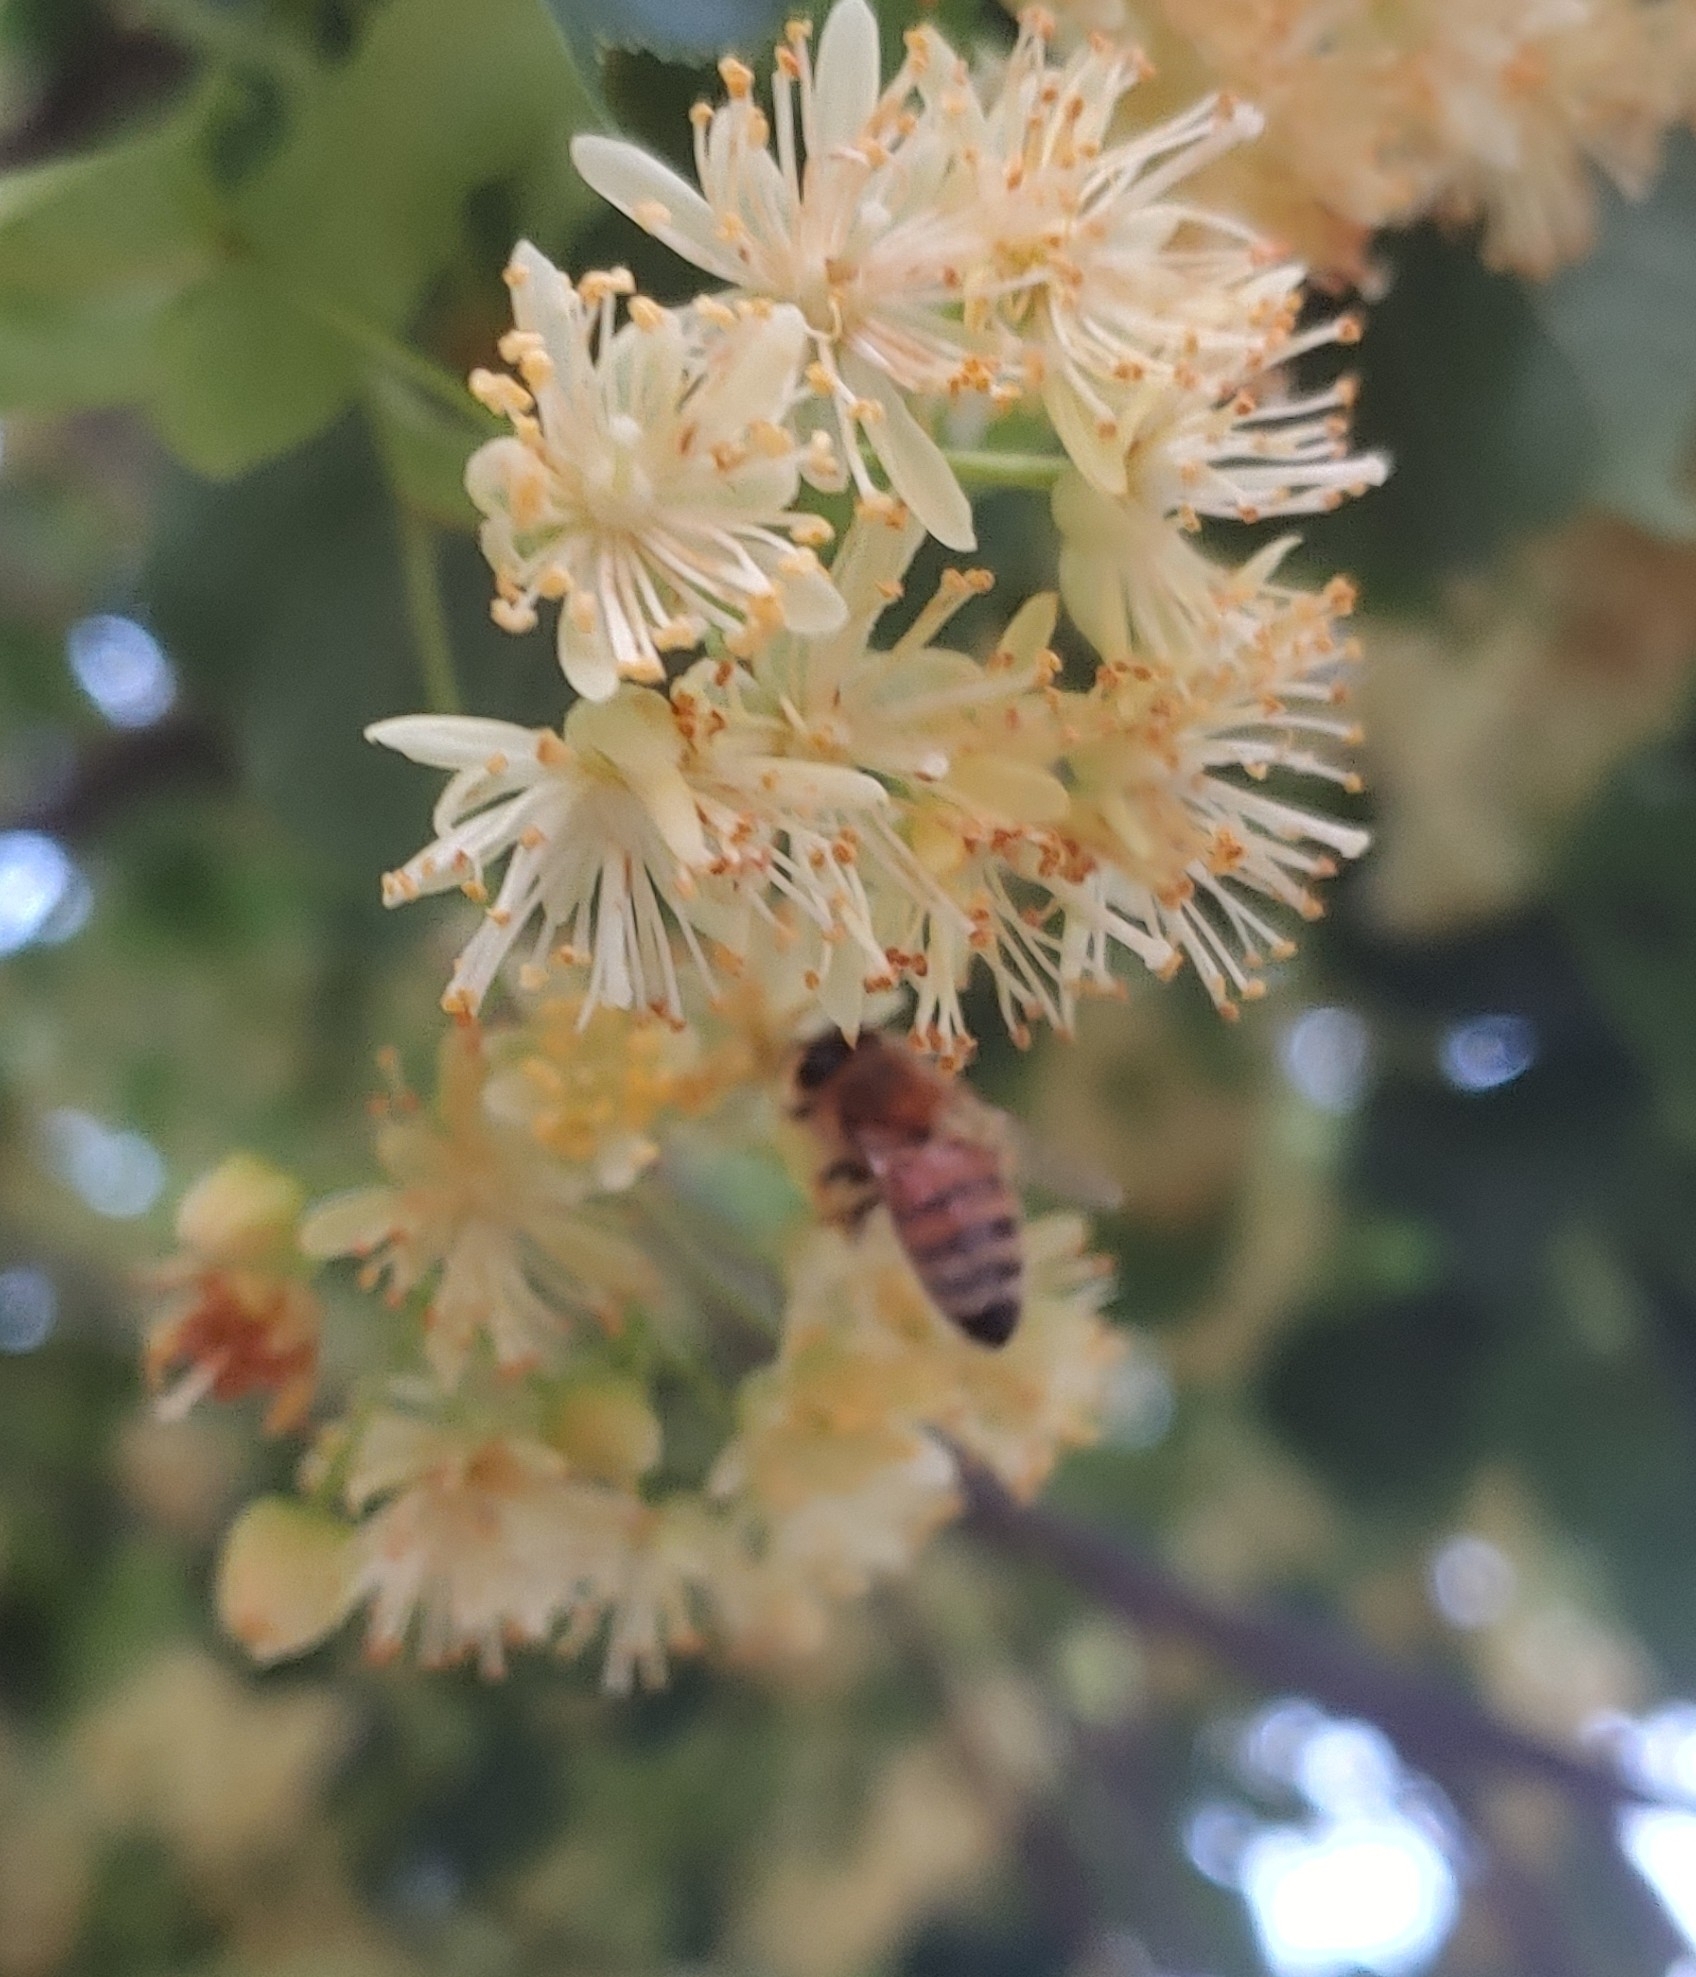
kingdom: Animalia
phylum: Arthropoda
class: Insecta
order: Hymenoptera
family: Apidae
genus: Apis
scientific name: Apis mellifera
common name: Honey bee
